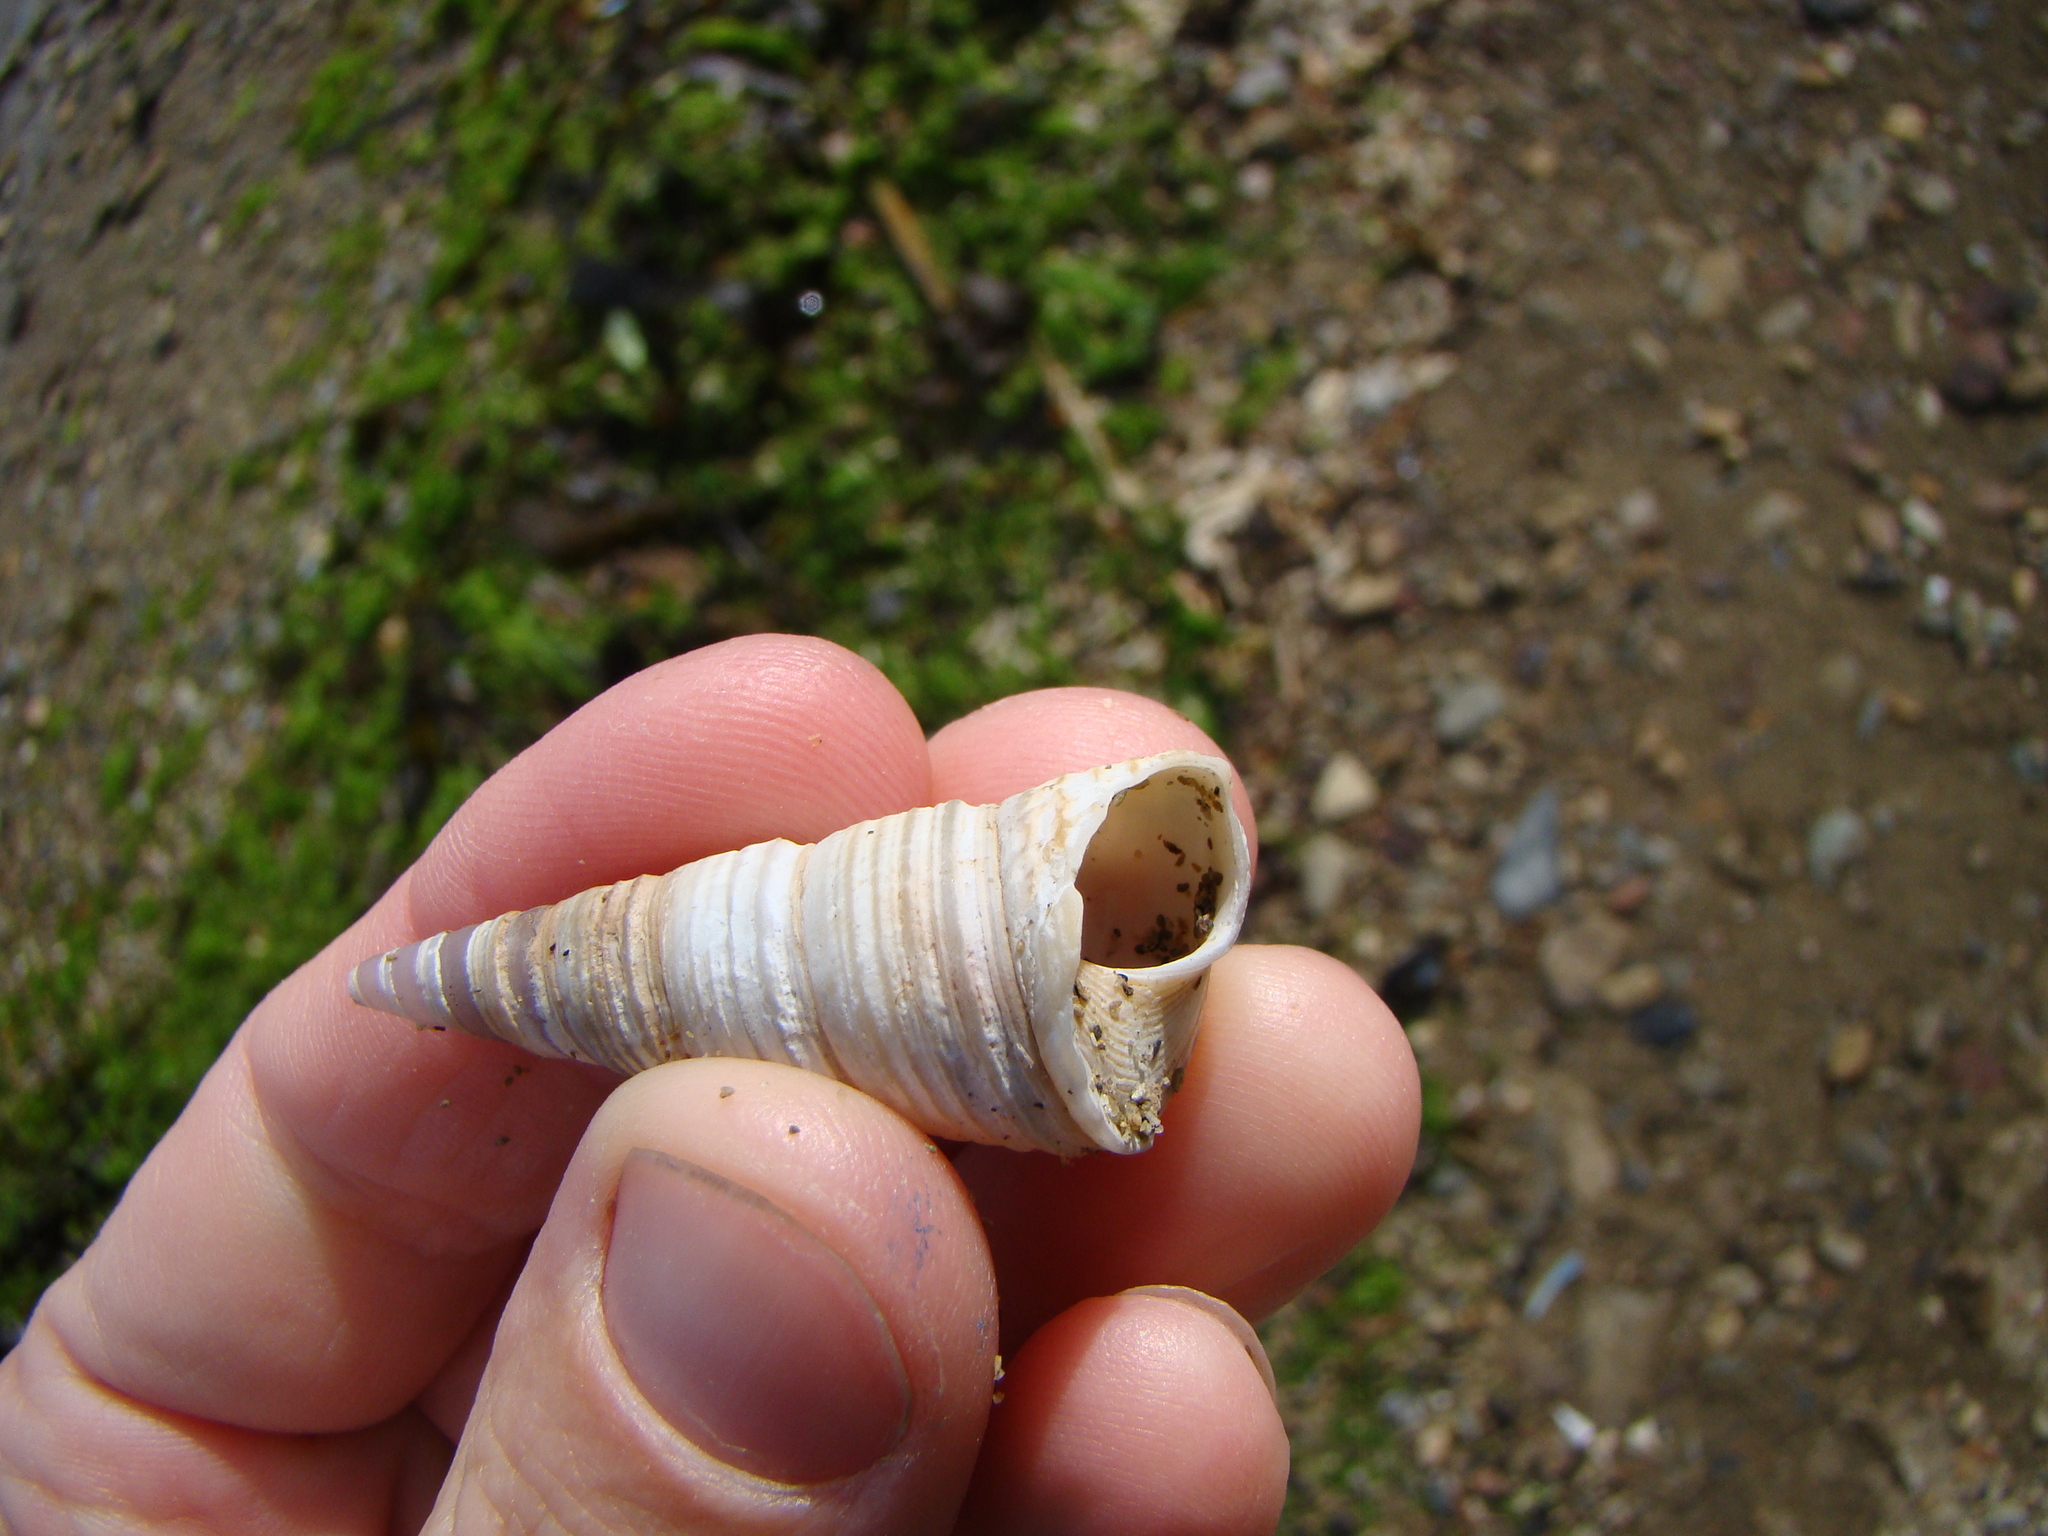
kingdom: Animalia
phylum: Mollusca
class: Gastropoda
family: Turritellidae
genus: Maoricolpus
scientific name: Maoricolpus roseus
